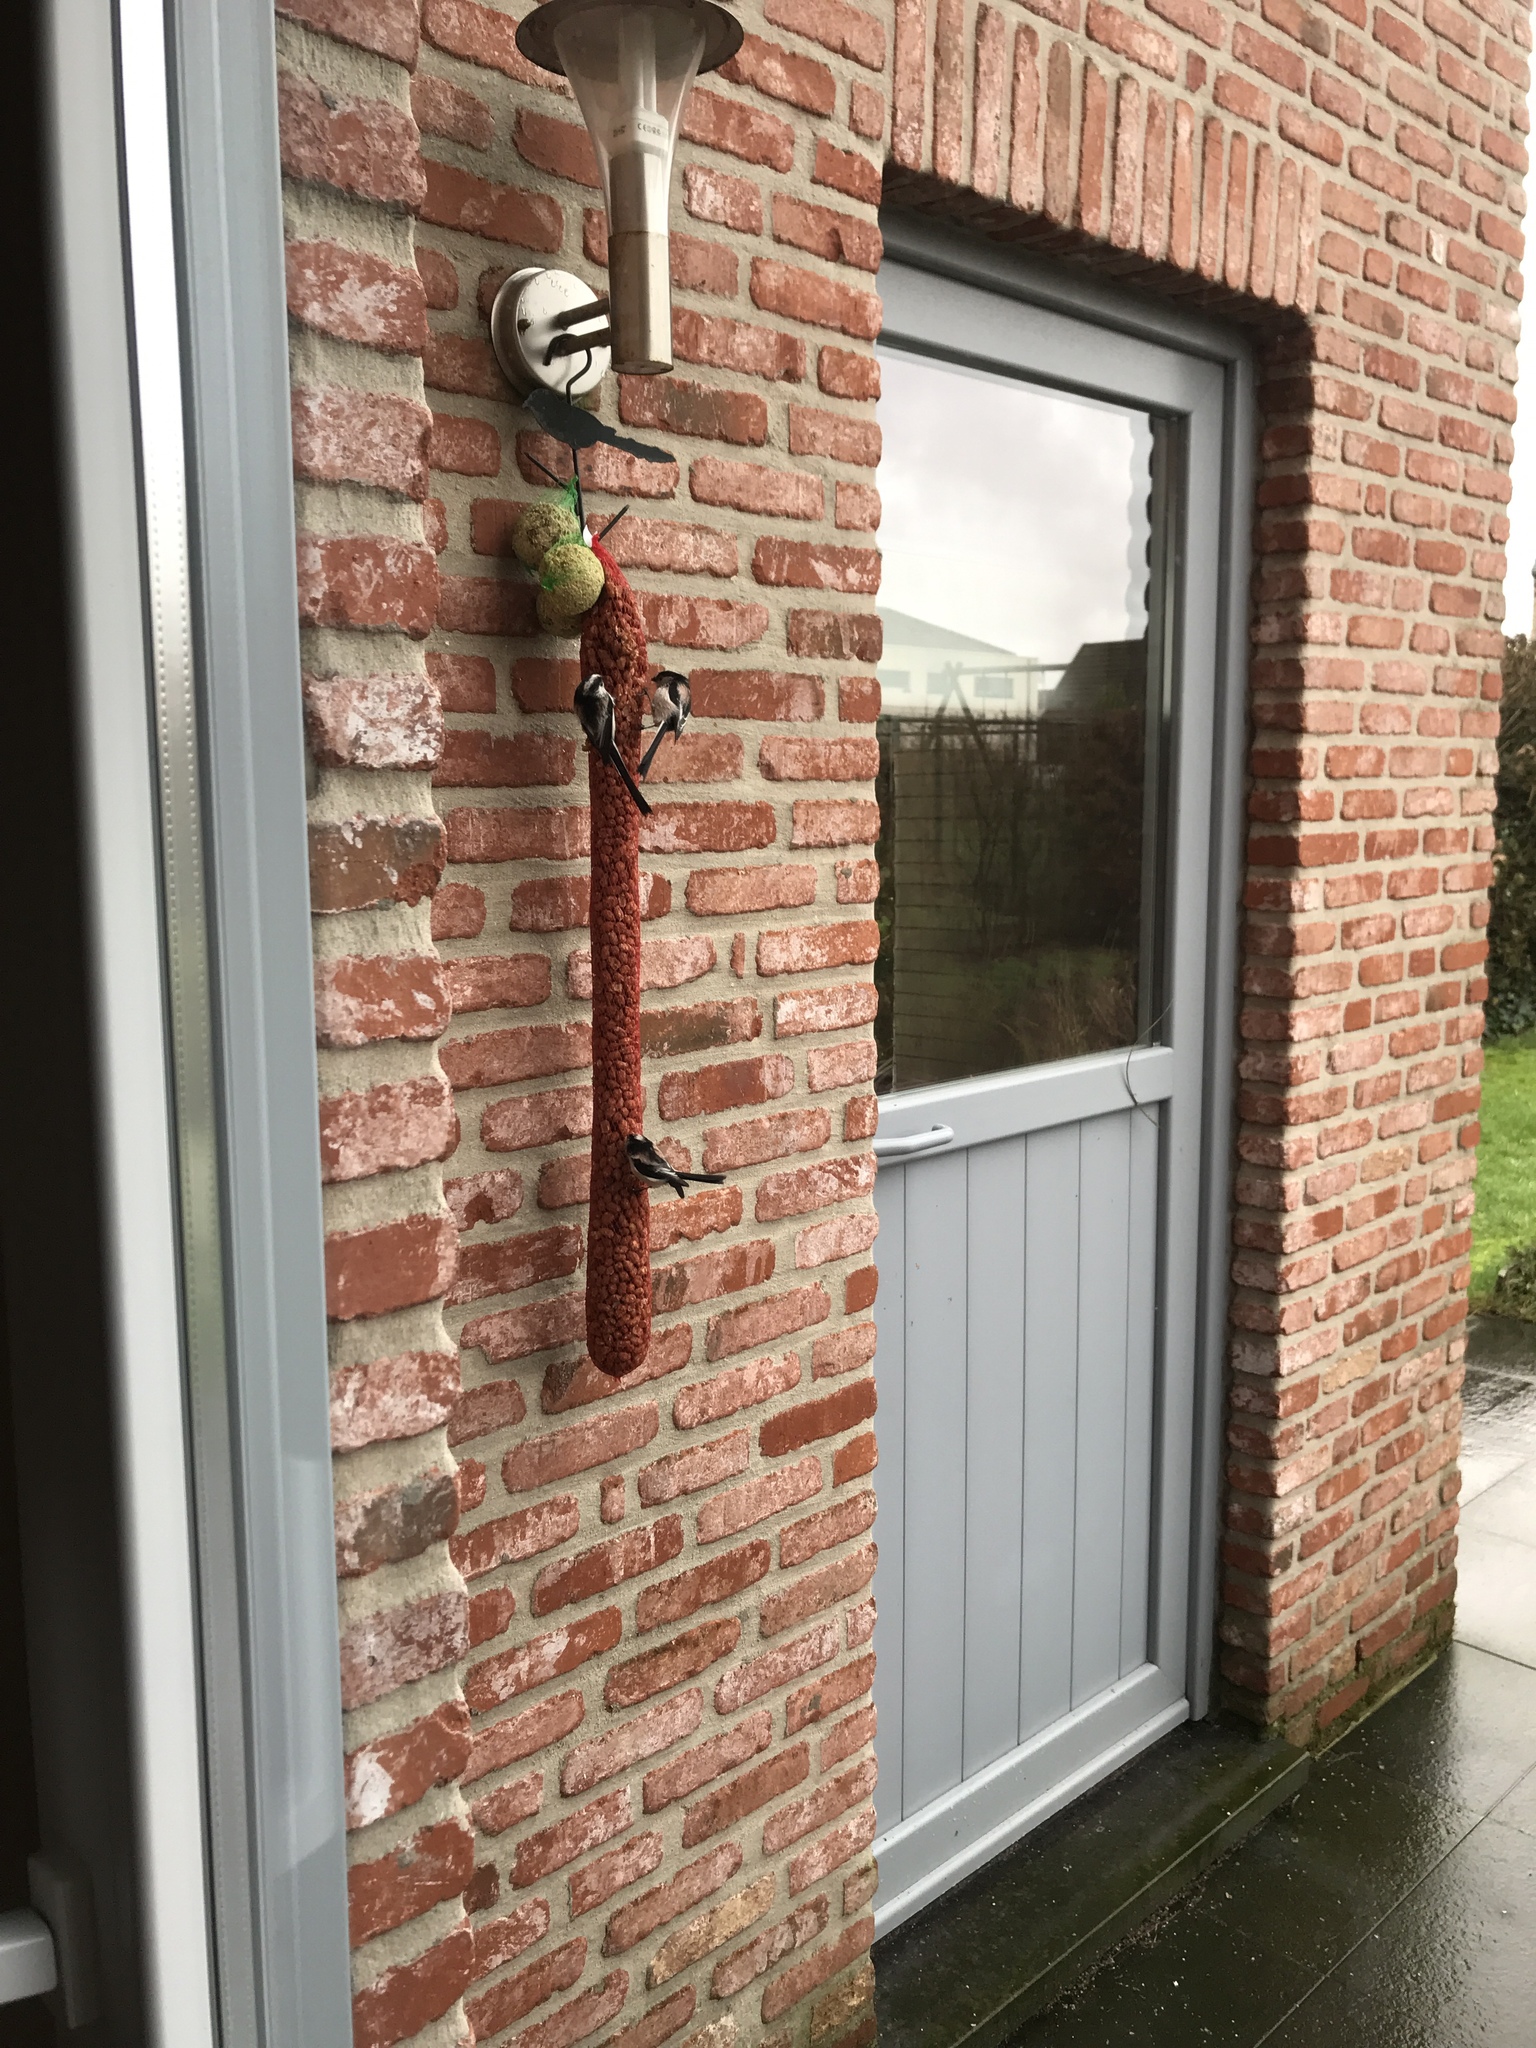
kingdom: Animalia
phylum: Chordata
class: Aves
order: Passeriformes
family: Aegithalidae
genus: Aegithalos
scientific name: Aegithalos caudatus
